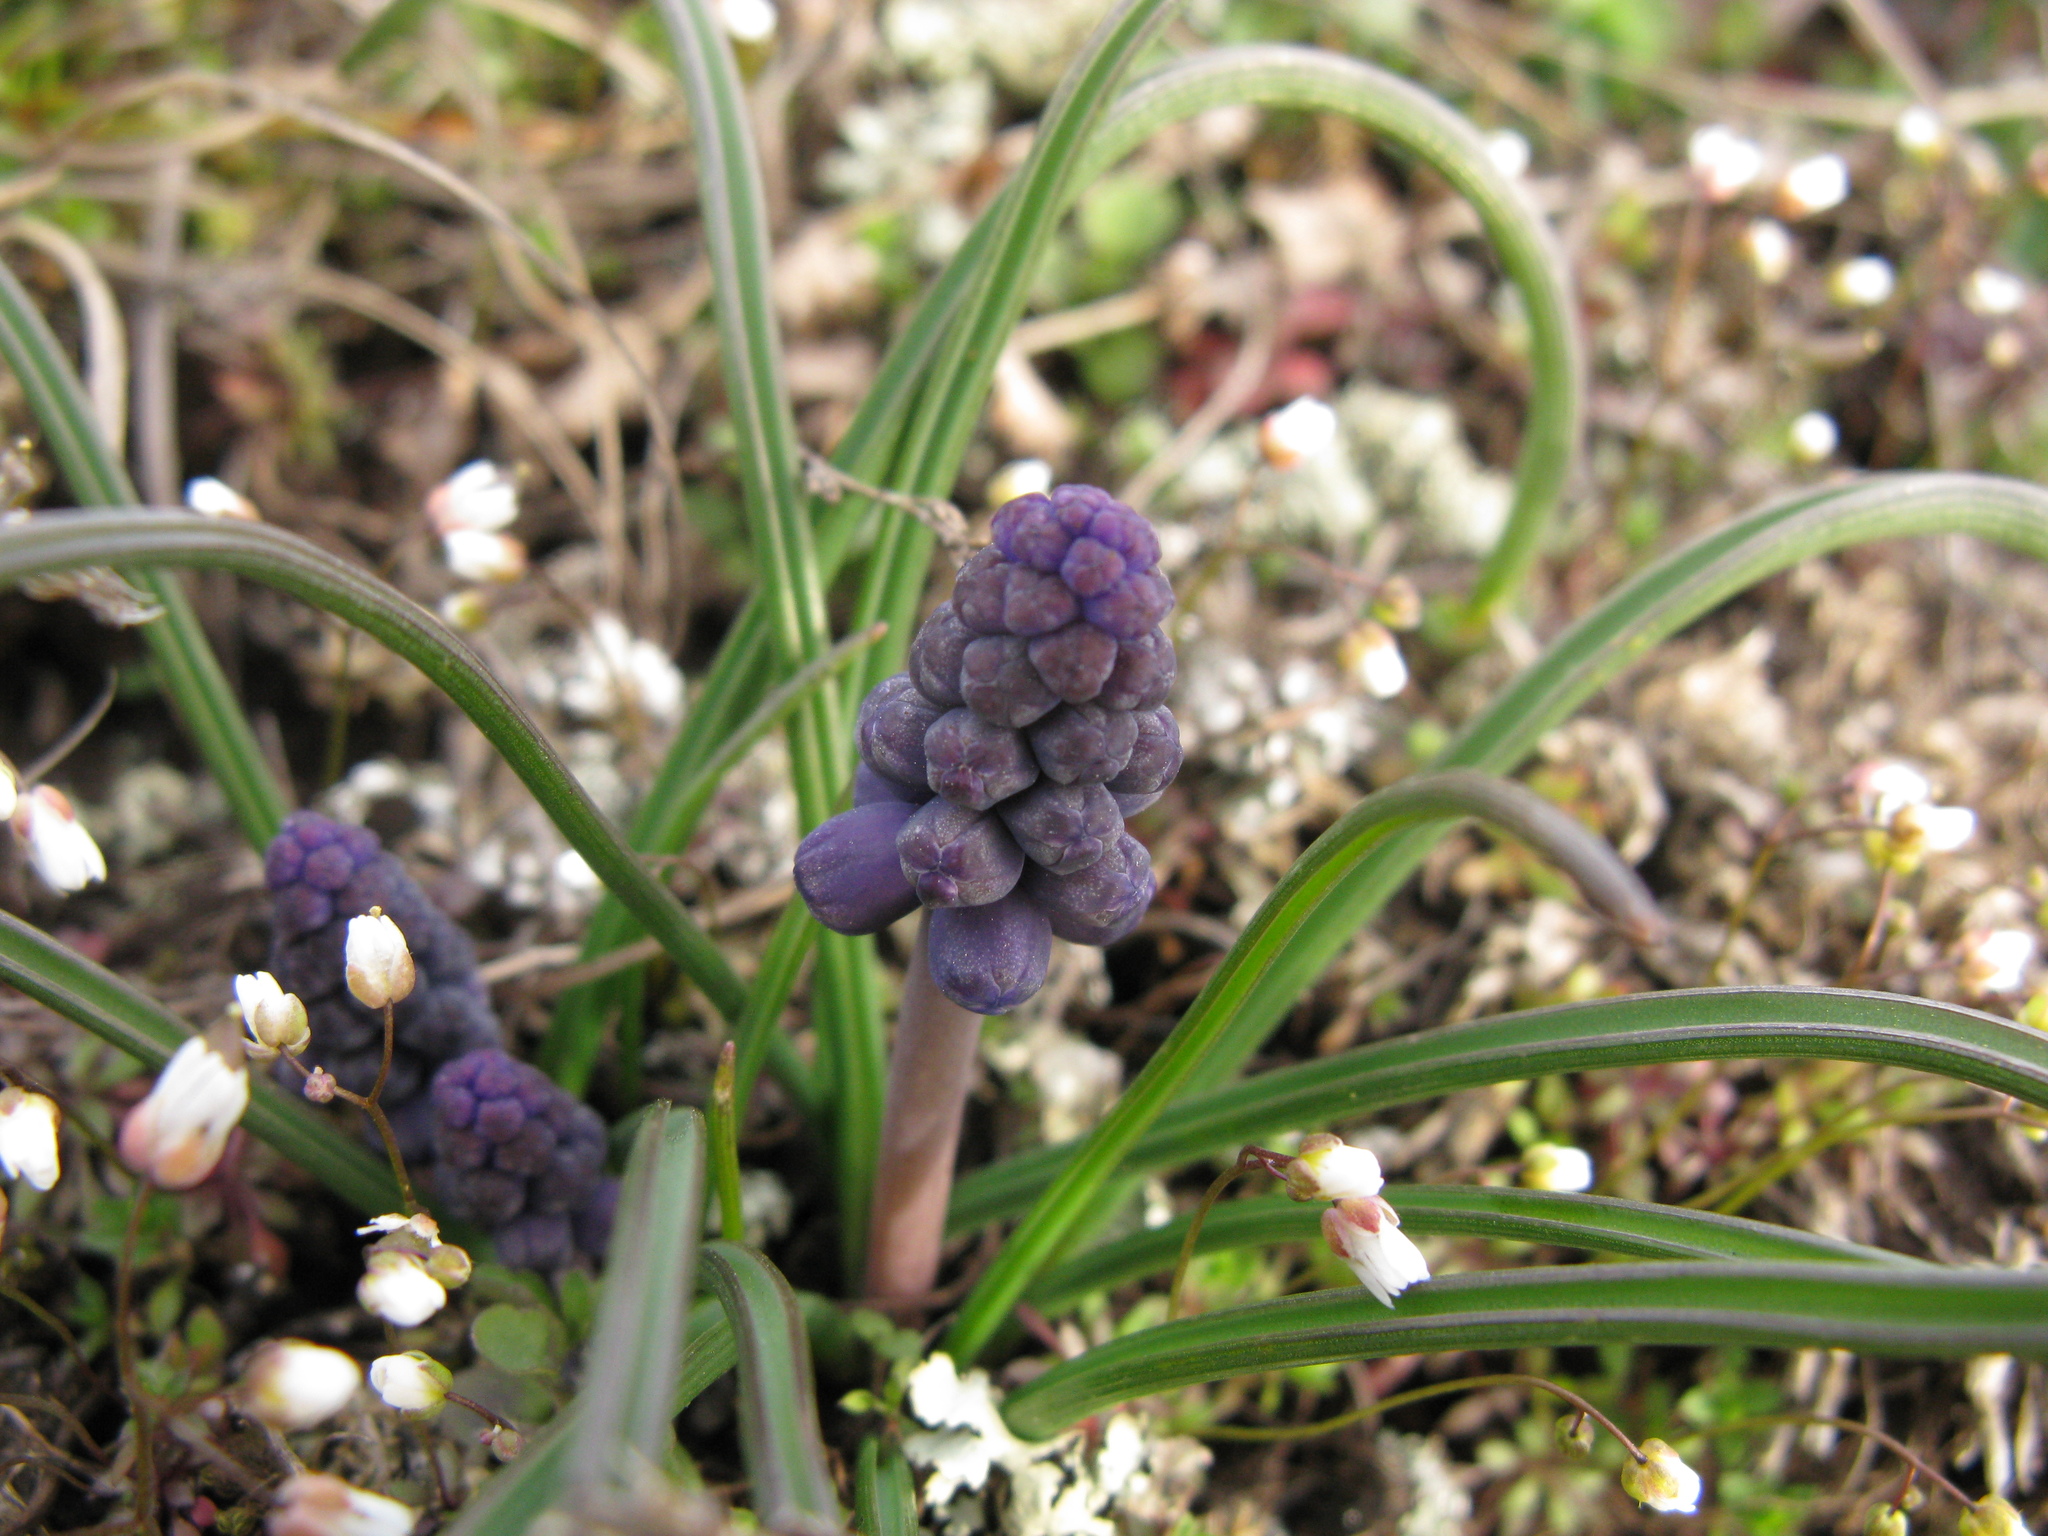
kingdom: Plantae
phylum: Tracheophyta
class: Liliopsida
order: Asparagales
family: Asparagaceae
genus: Muscari
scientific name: Muscari neglectum
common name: Grape-hyacinth
